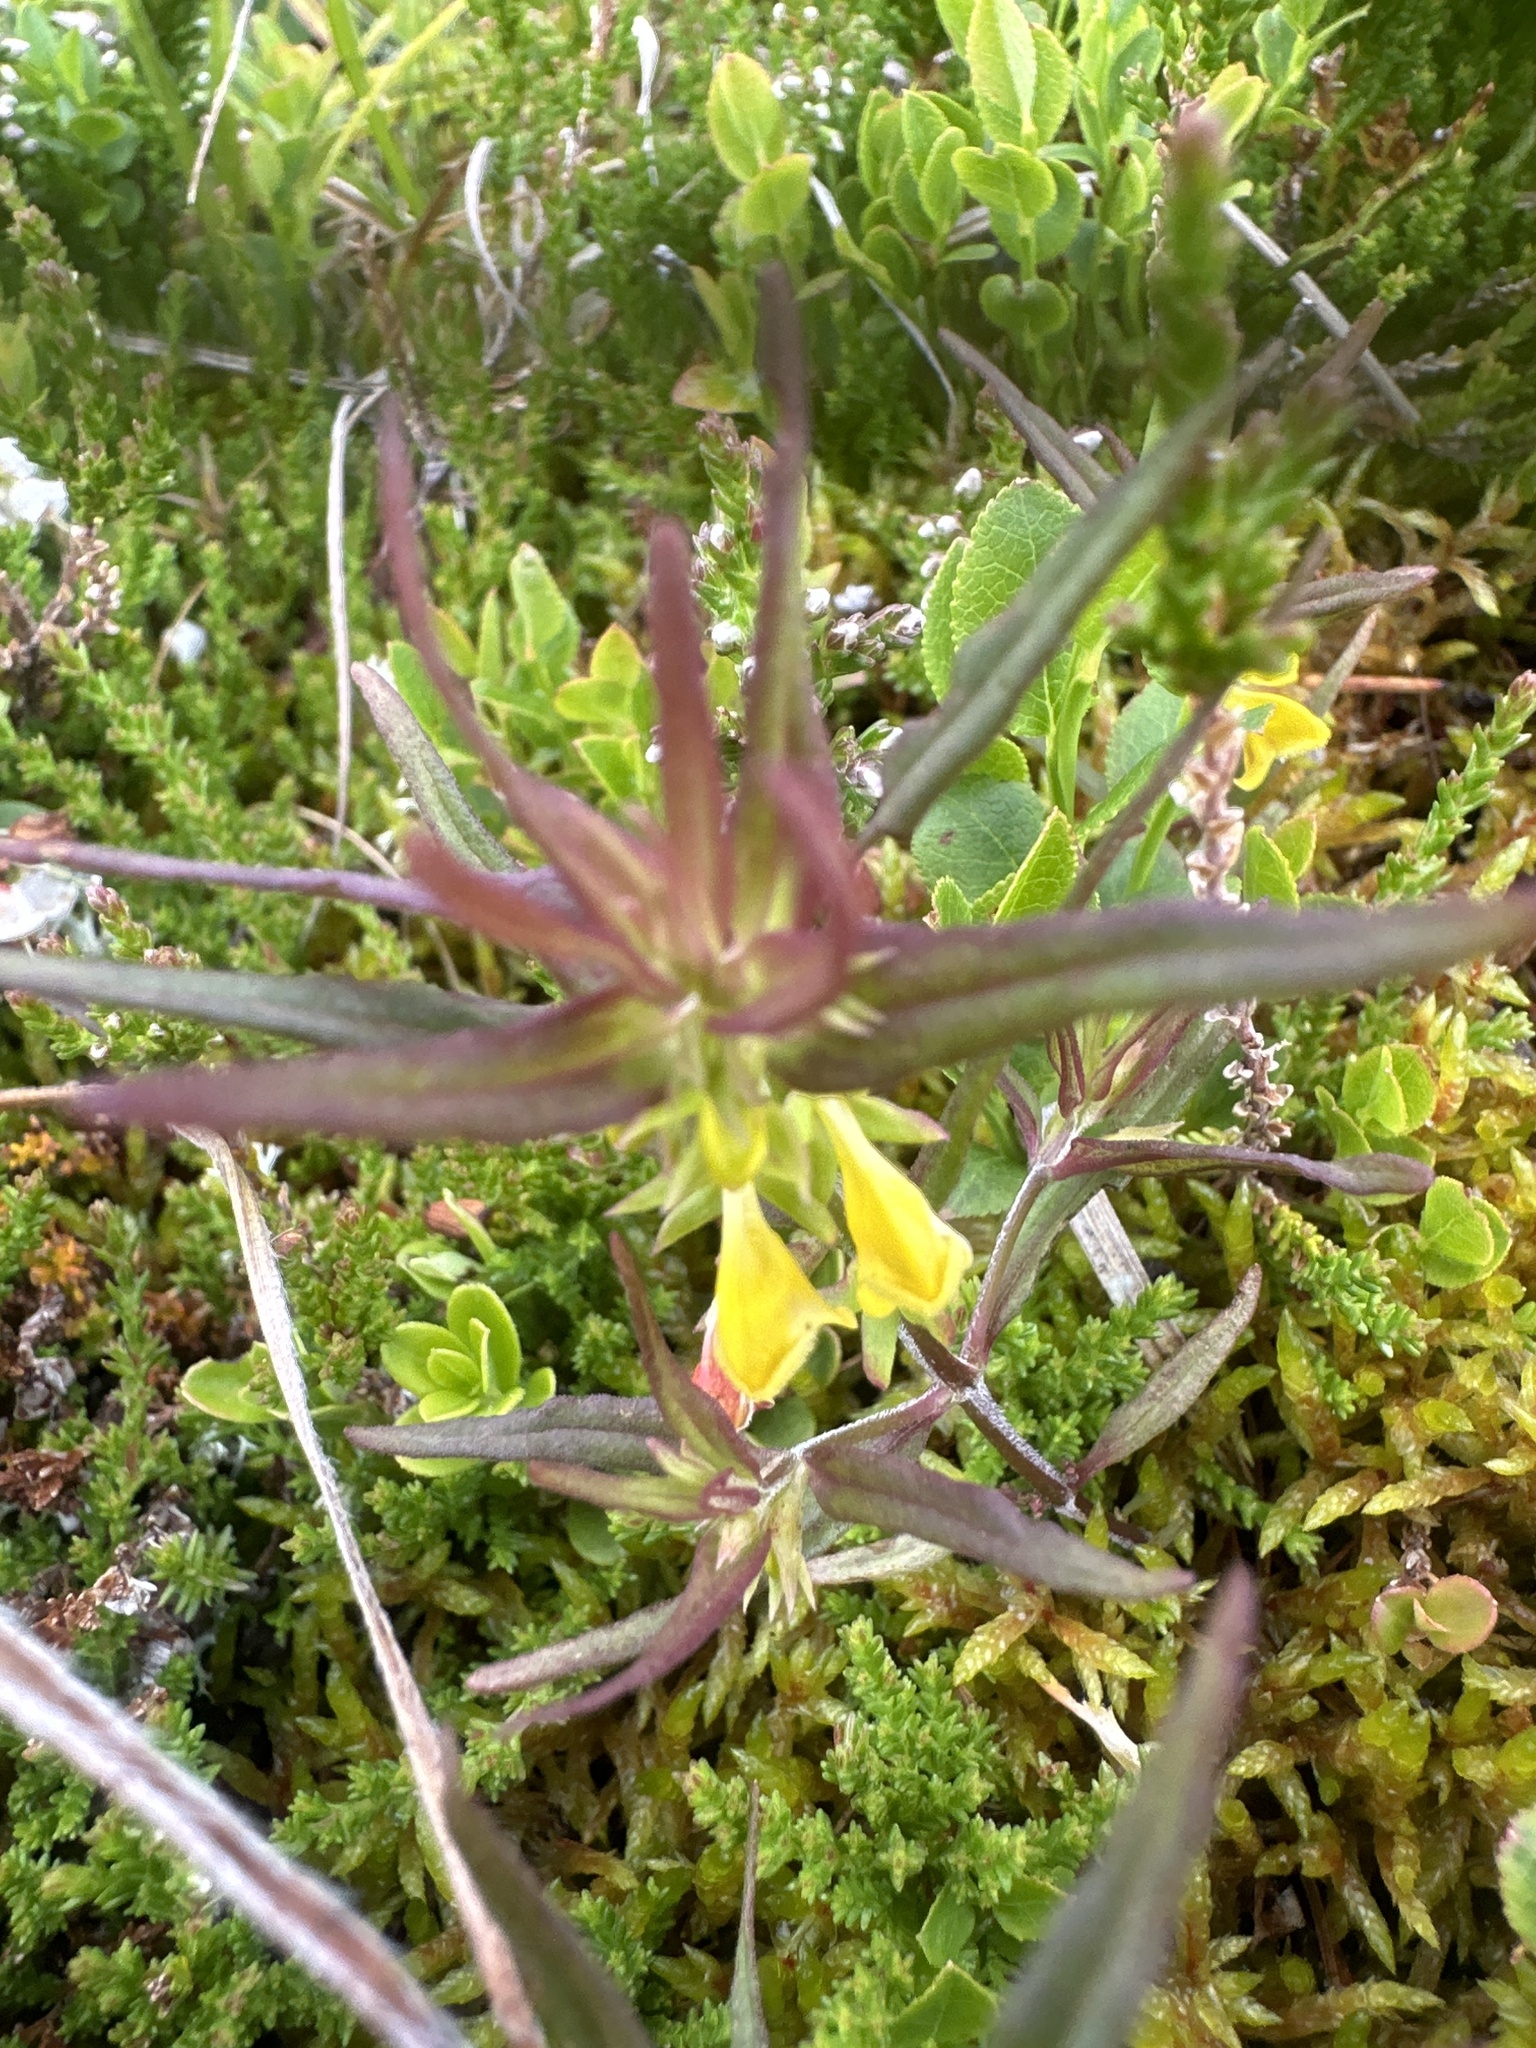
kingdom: Plantae
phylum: Tracheophyta
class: Magnoliopsida
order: Lamiales
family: Orobanchaceae
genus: Melampyrum
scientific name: Melampyrum sylvaticum
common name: Small cow-wheat
